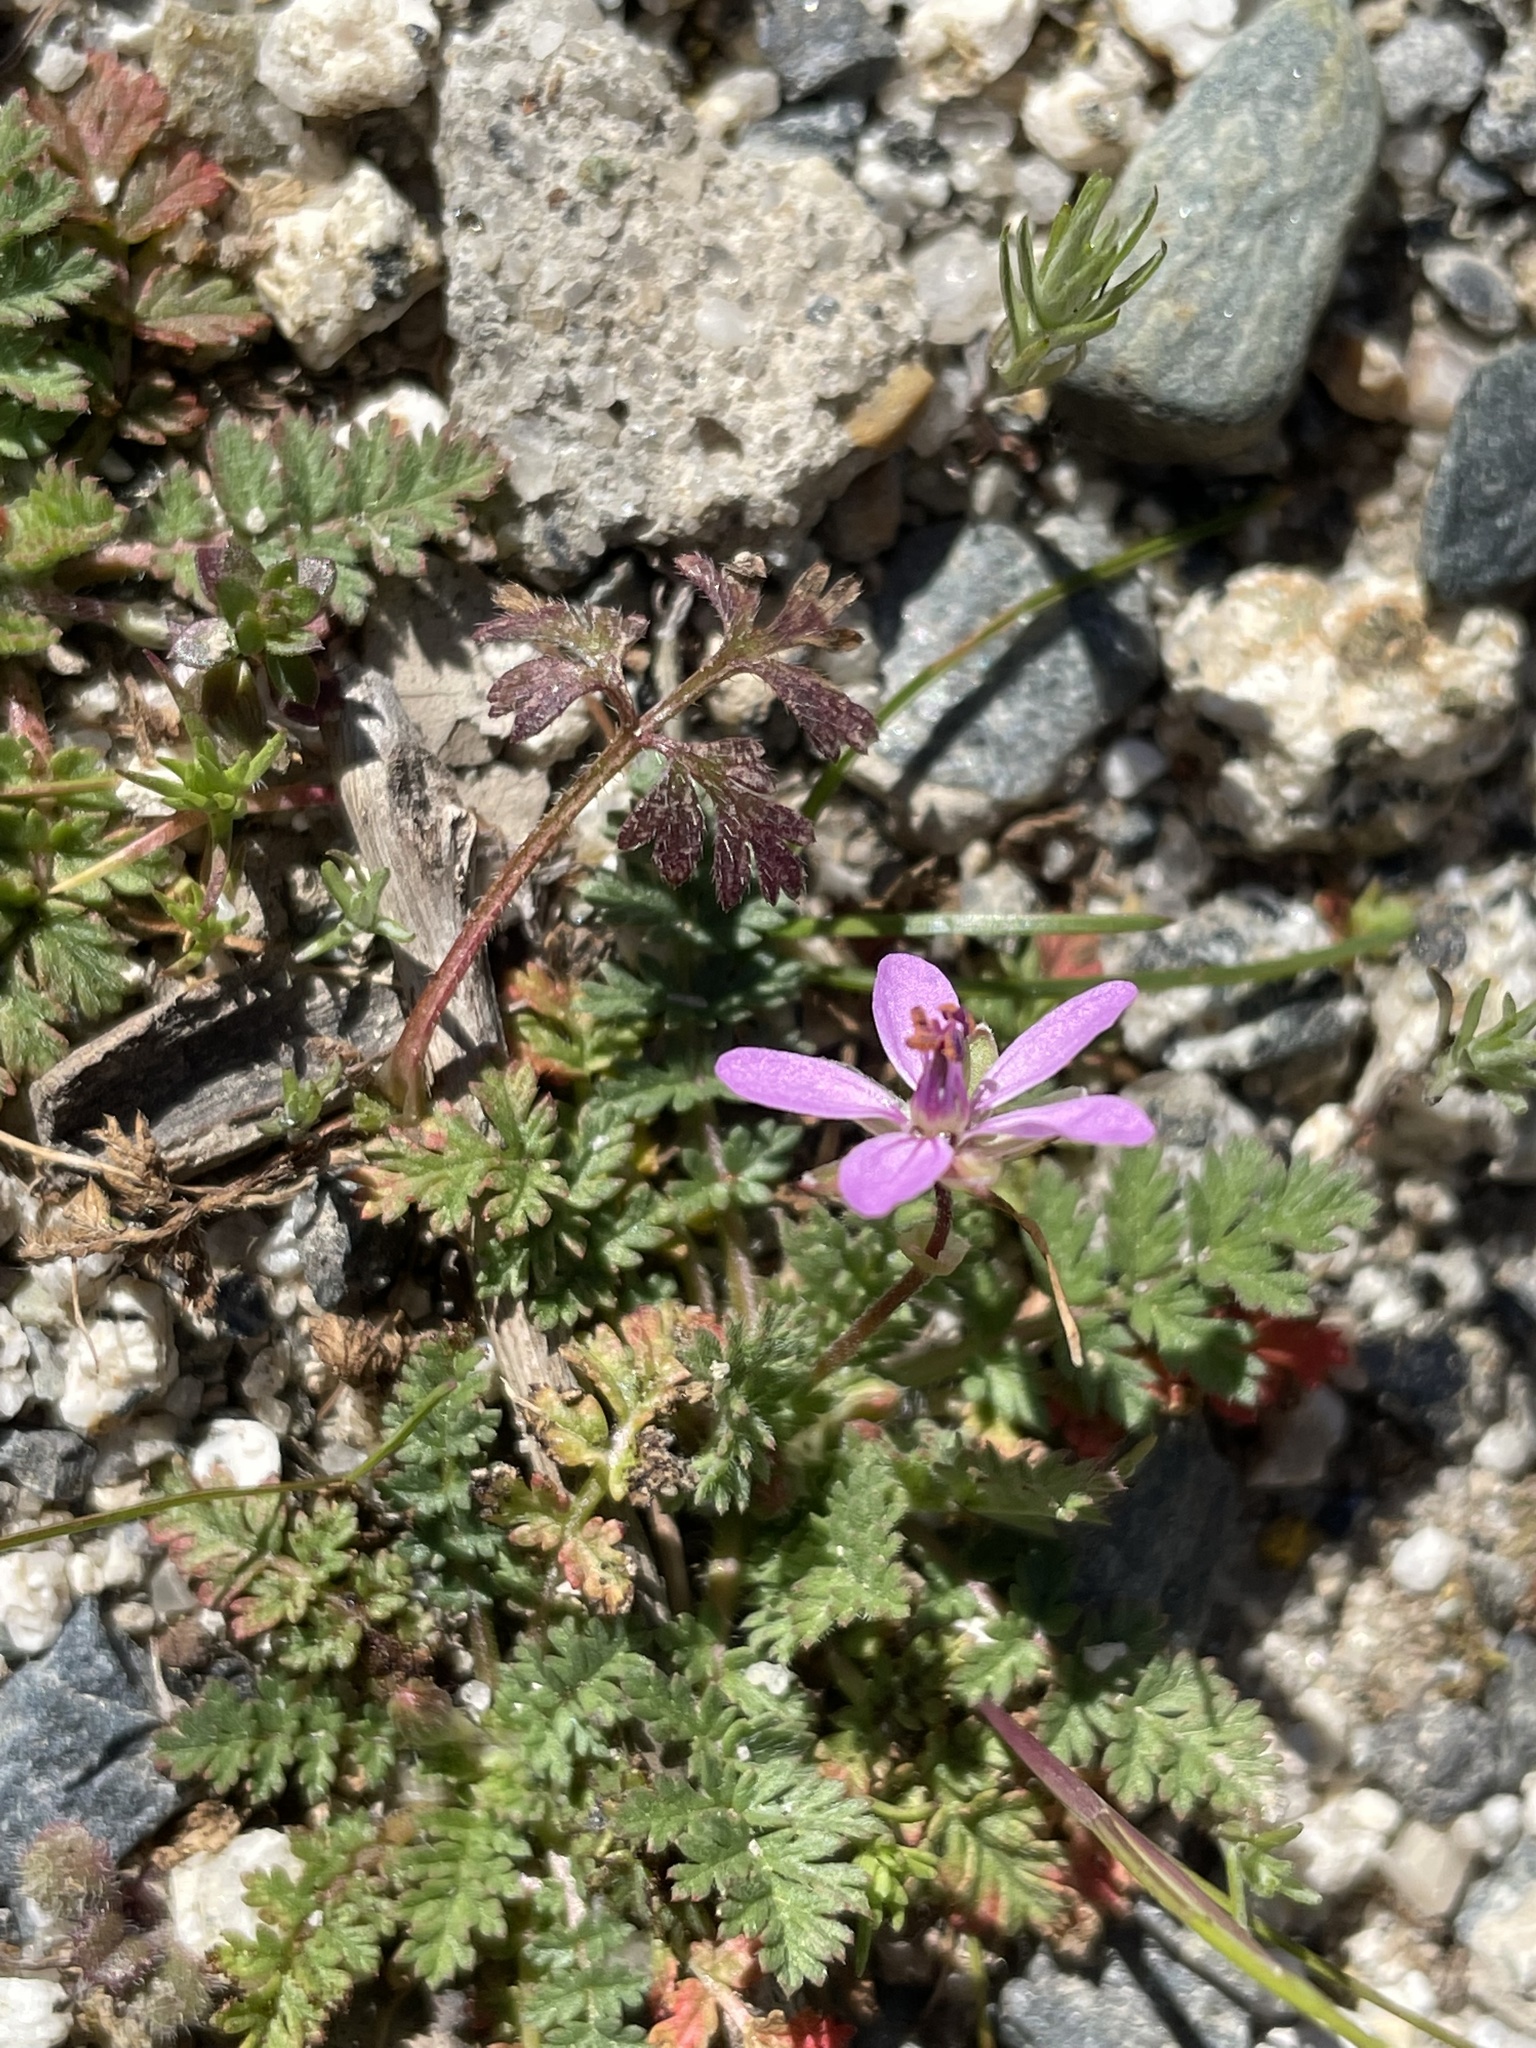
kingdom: Plantae
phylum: Tracheophyta
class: Magnoliopsida
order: Geraniales
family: Geraniaceae
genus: Erodium
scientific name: Erodium cicutarium
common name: Common stork's-bill
